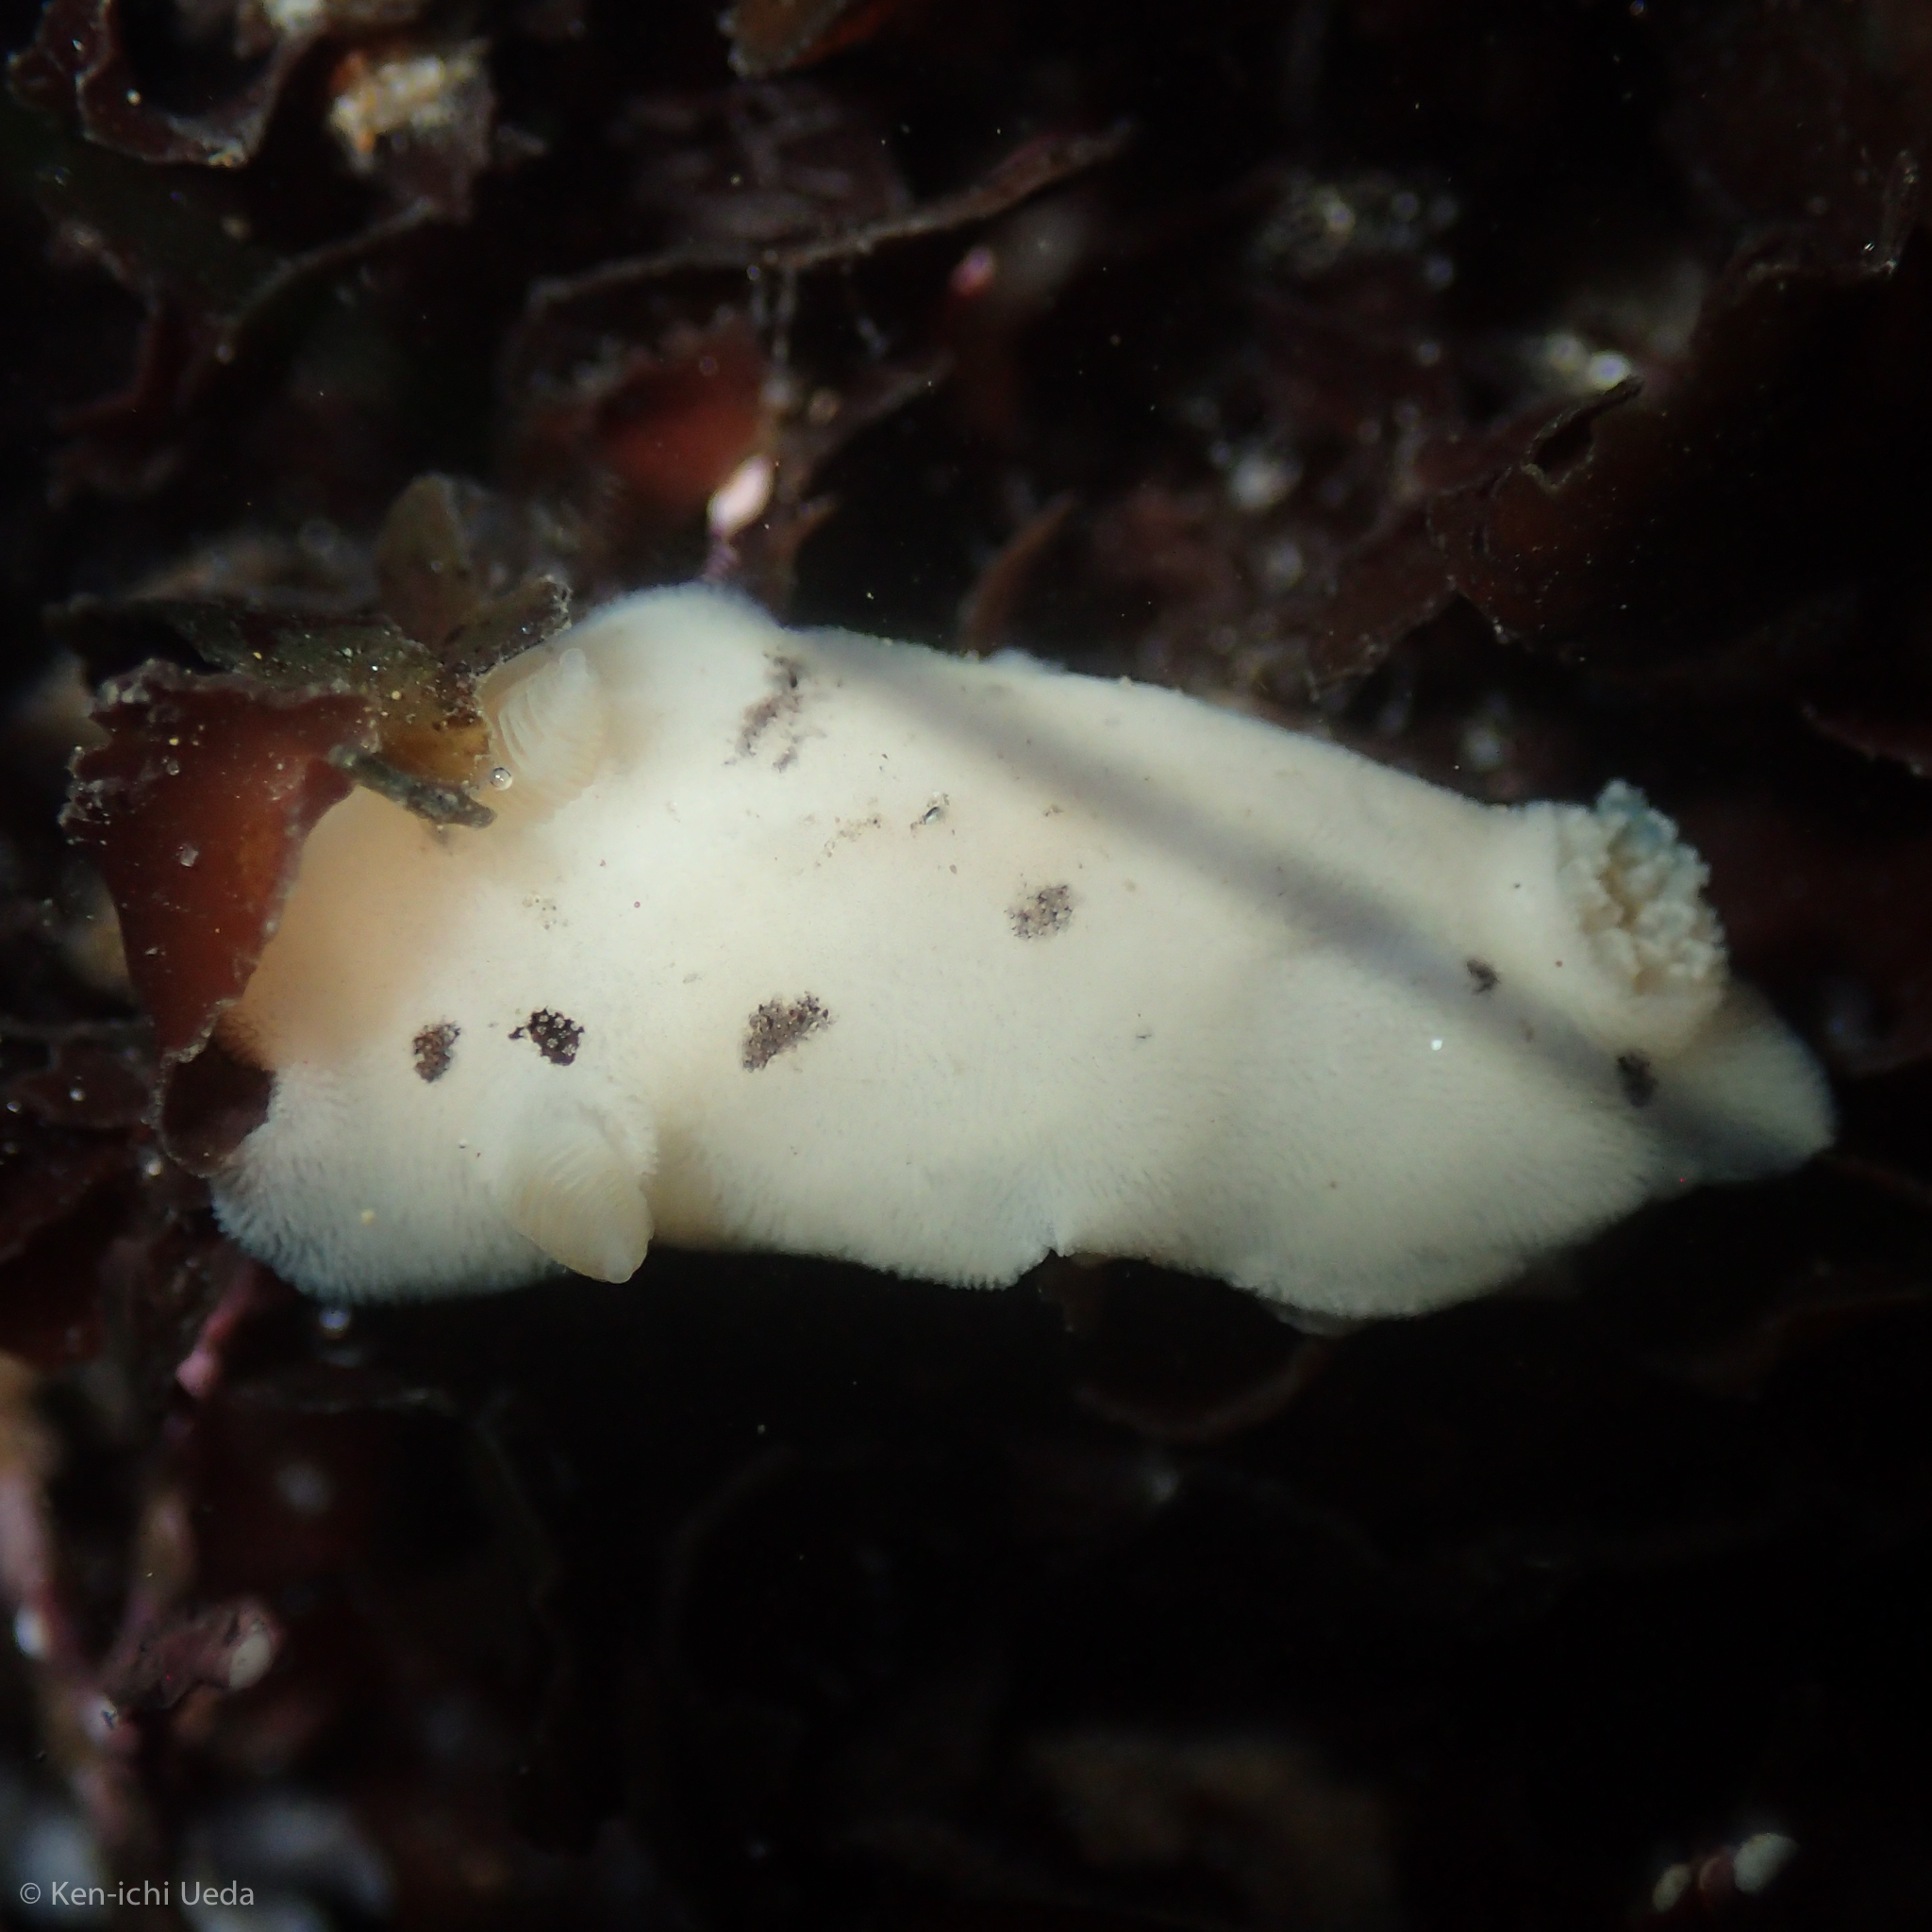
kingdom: Animalia
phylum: Mollusca
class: Gastropoda
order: Nudibranchia
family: Discodorididae
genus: Diaulula
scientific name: Diaulula sandiegensis
